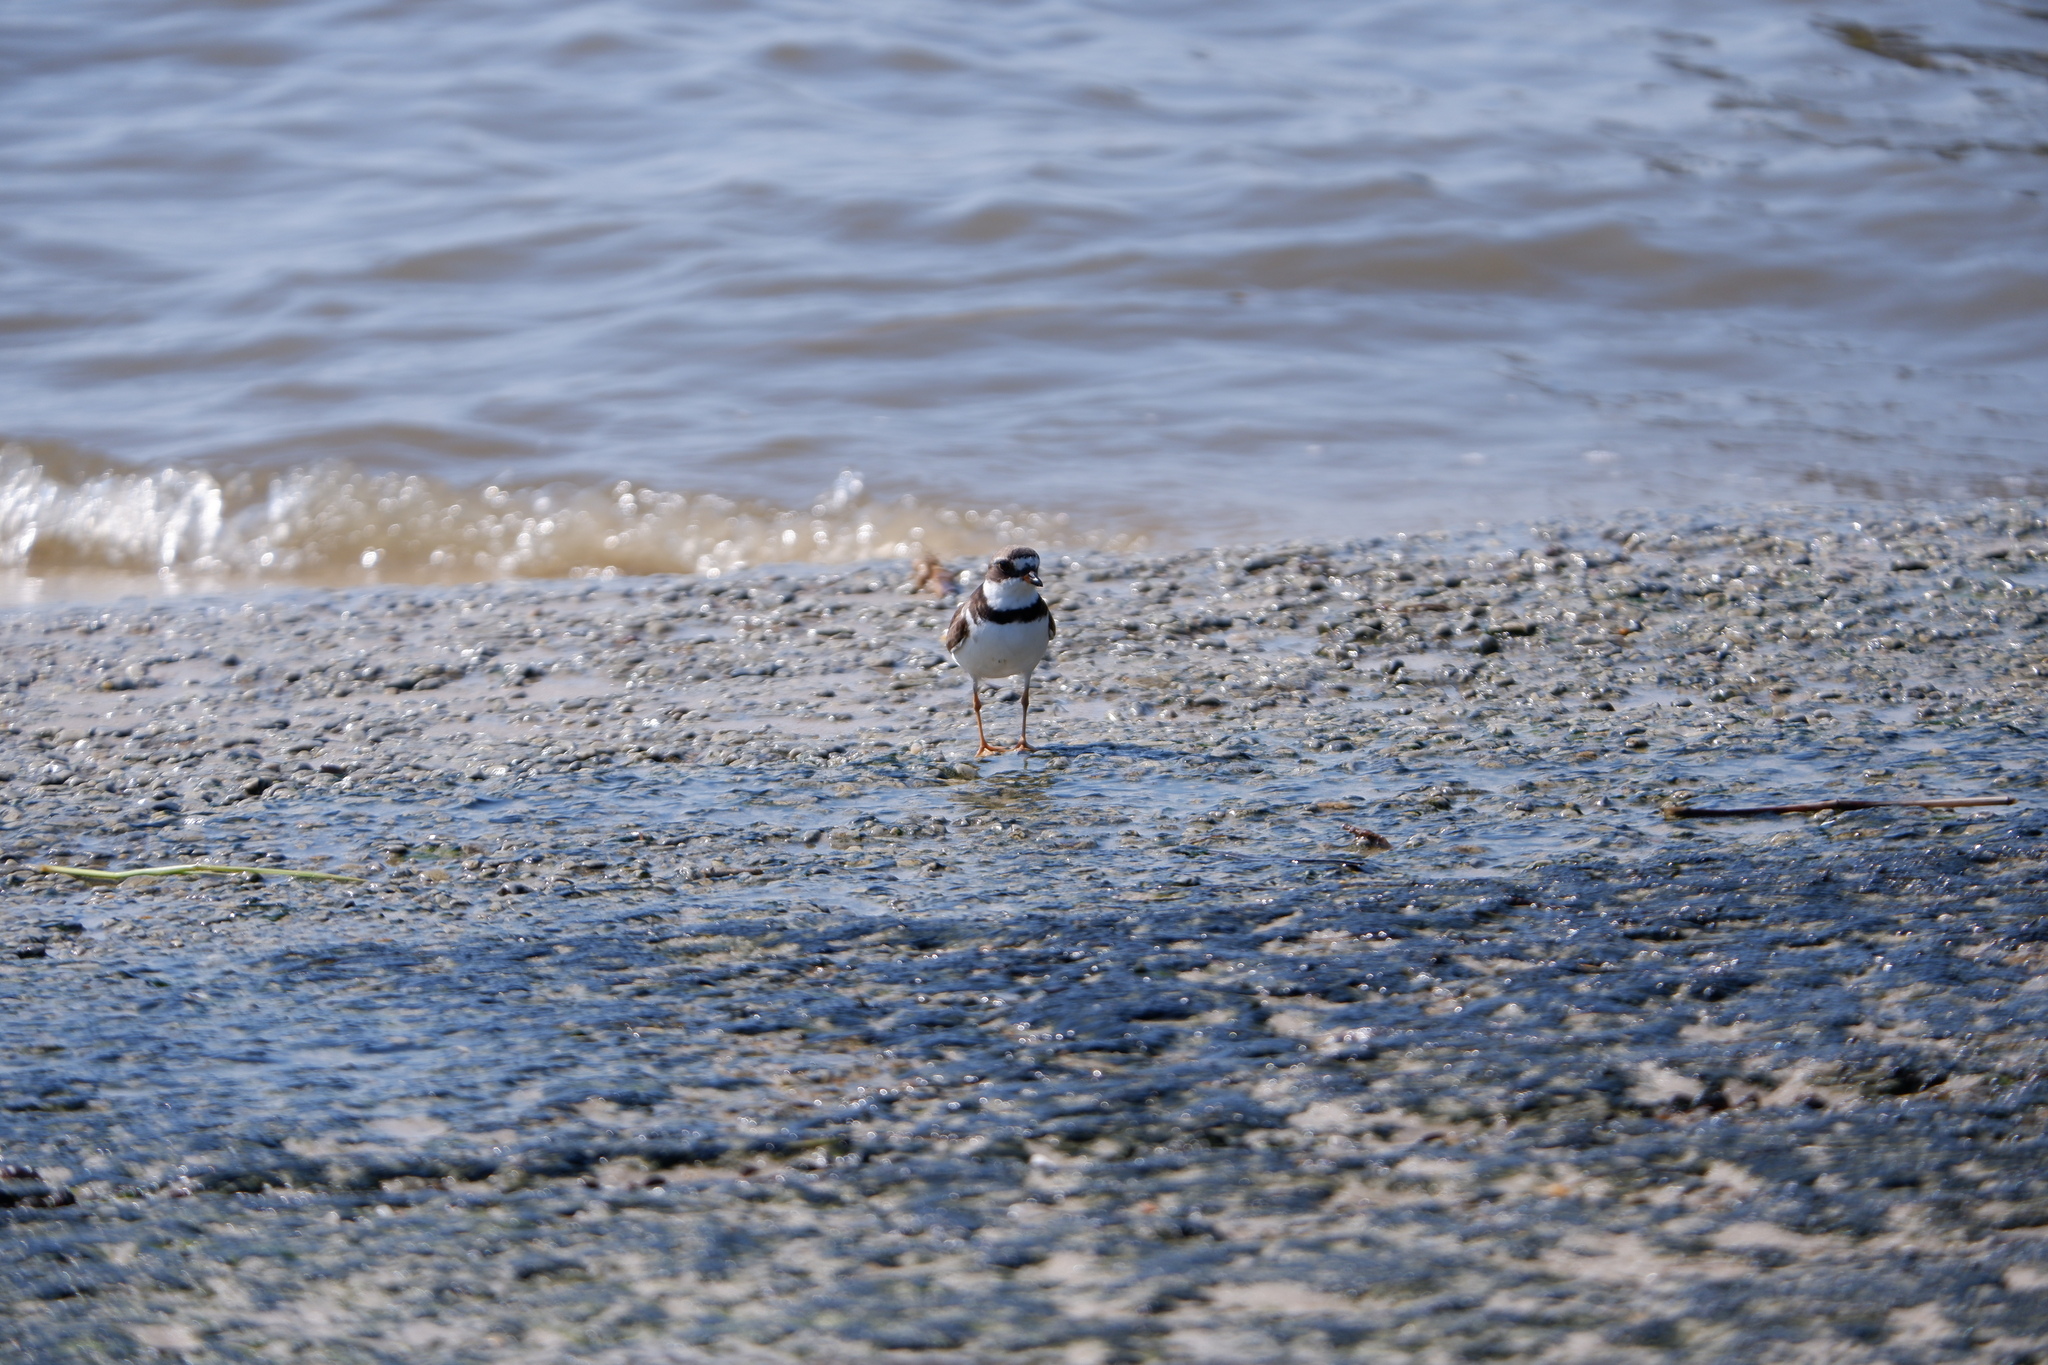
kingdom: Animalia
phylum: Chordata
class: Aves
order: Charadriiformes
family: Charadriidae
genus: Charadrius
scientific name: Charadrius semipalmatus
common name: Semipalmated plover
